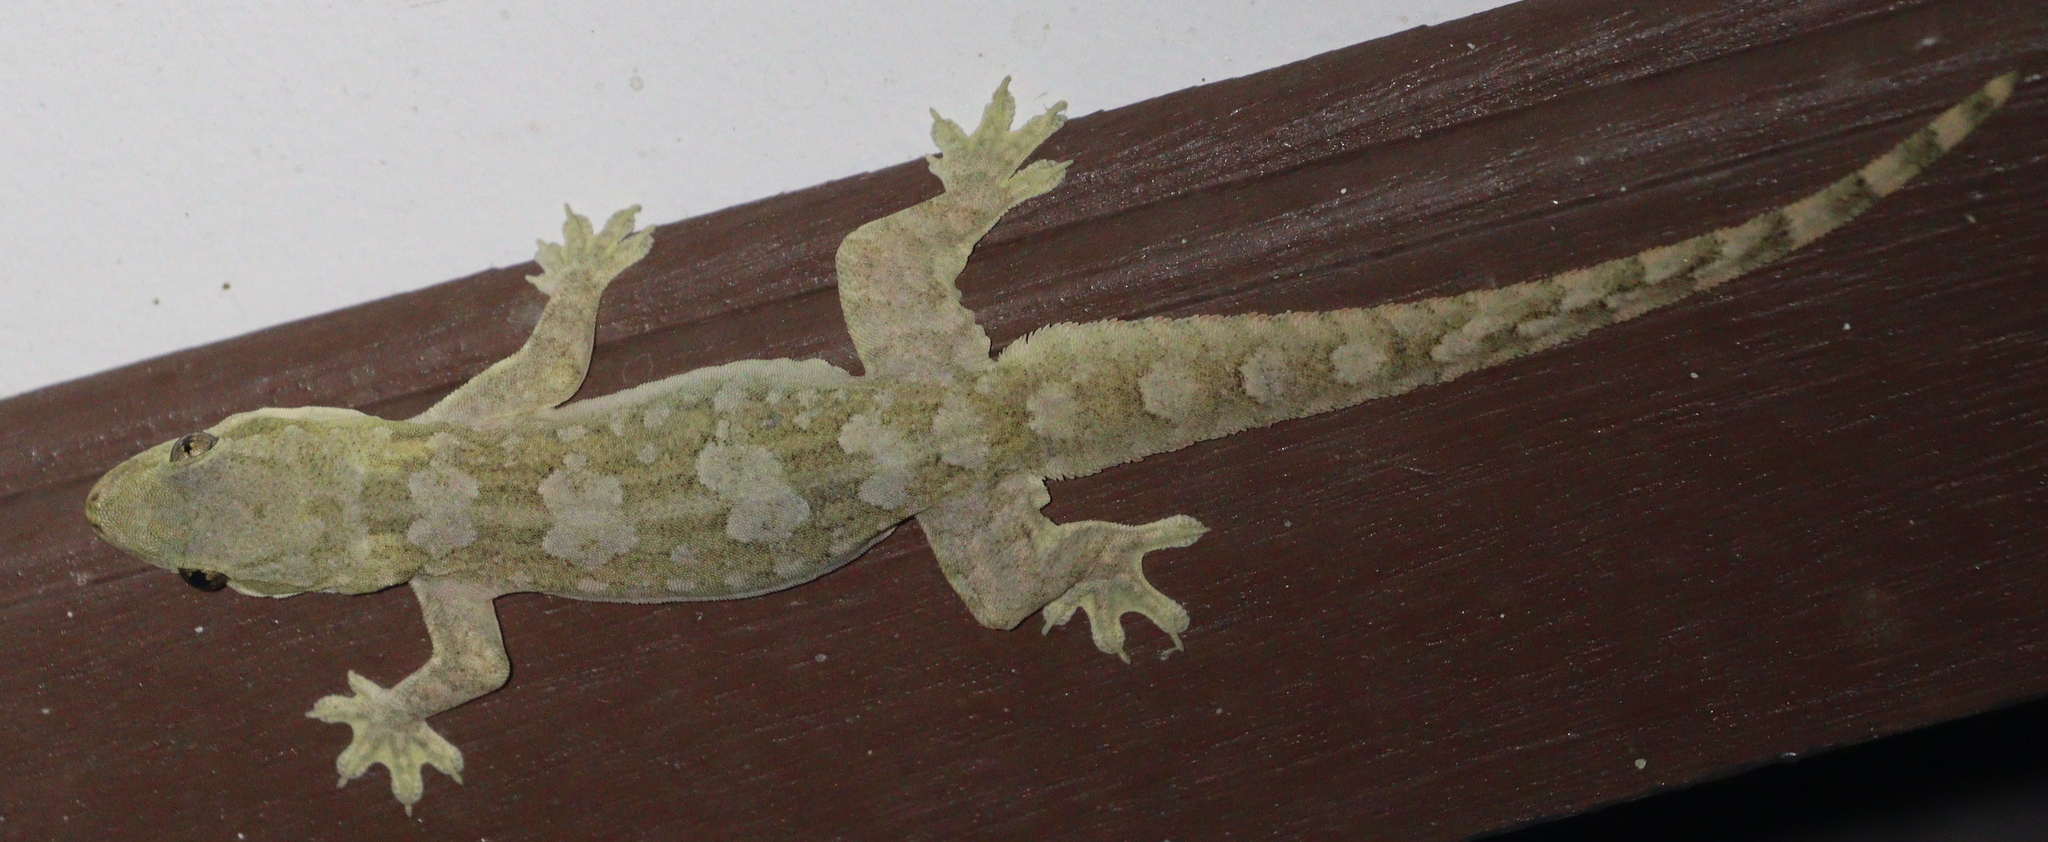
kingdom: Animalia
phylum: Chordata
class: Squamata
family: Gekkonidae
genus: Hemidactylus
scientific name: Hemidactylus platyurus
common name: Flat-tailed house gecko
